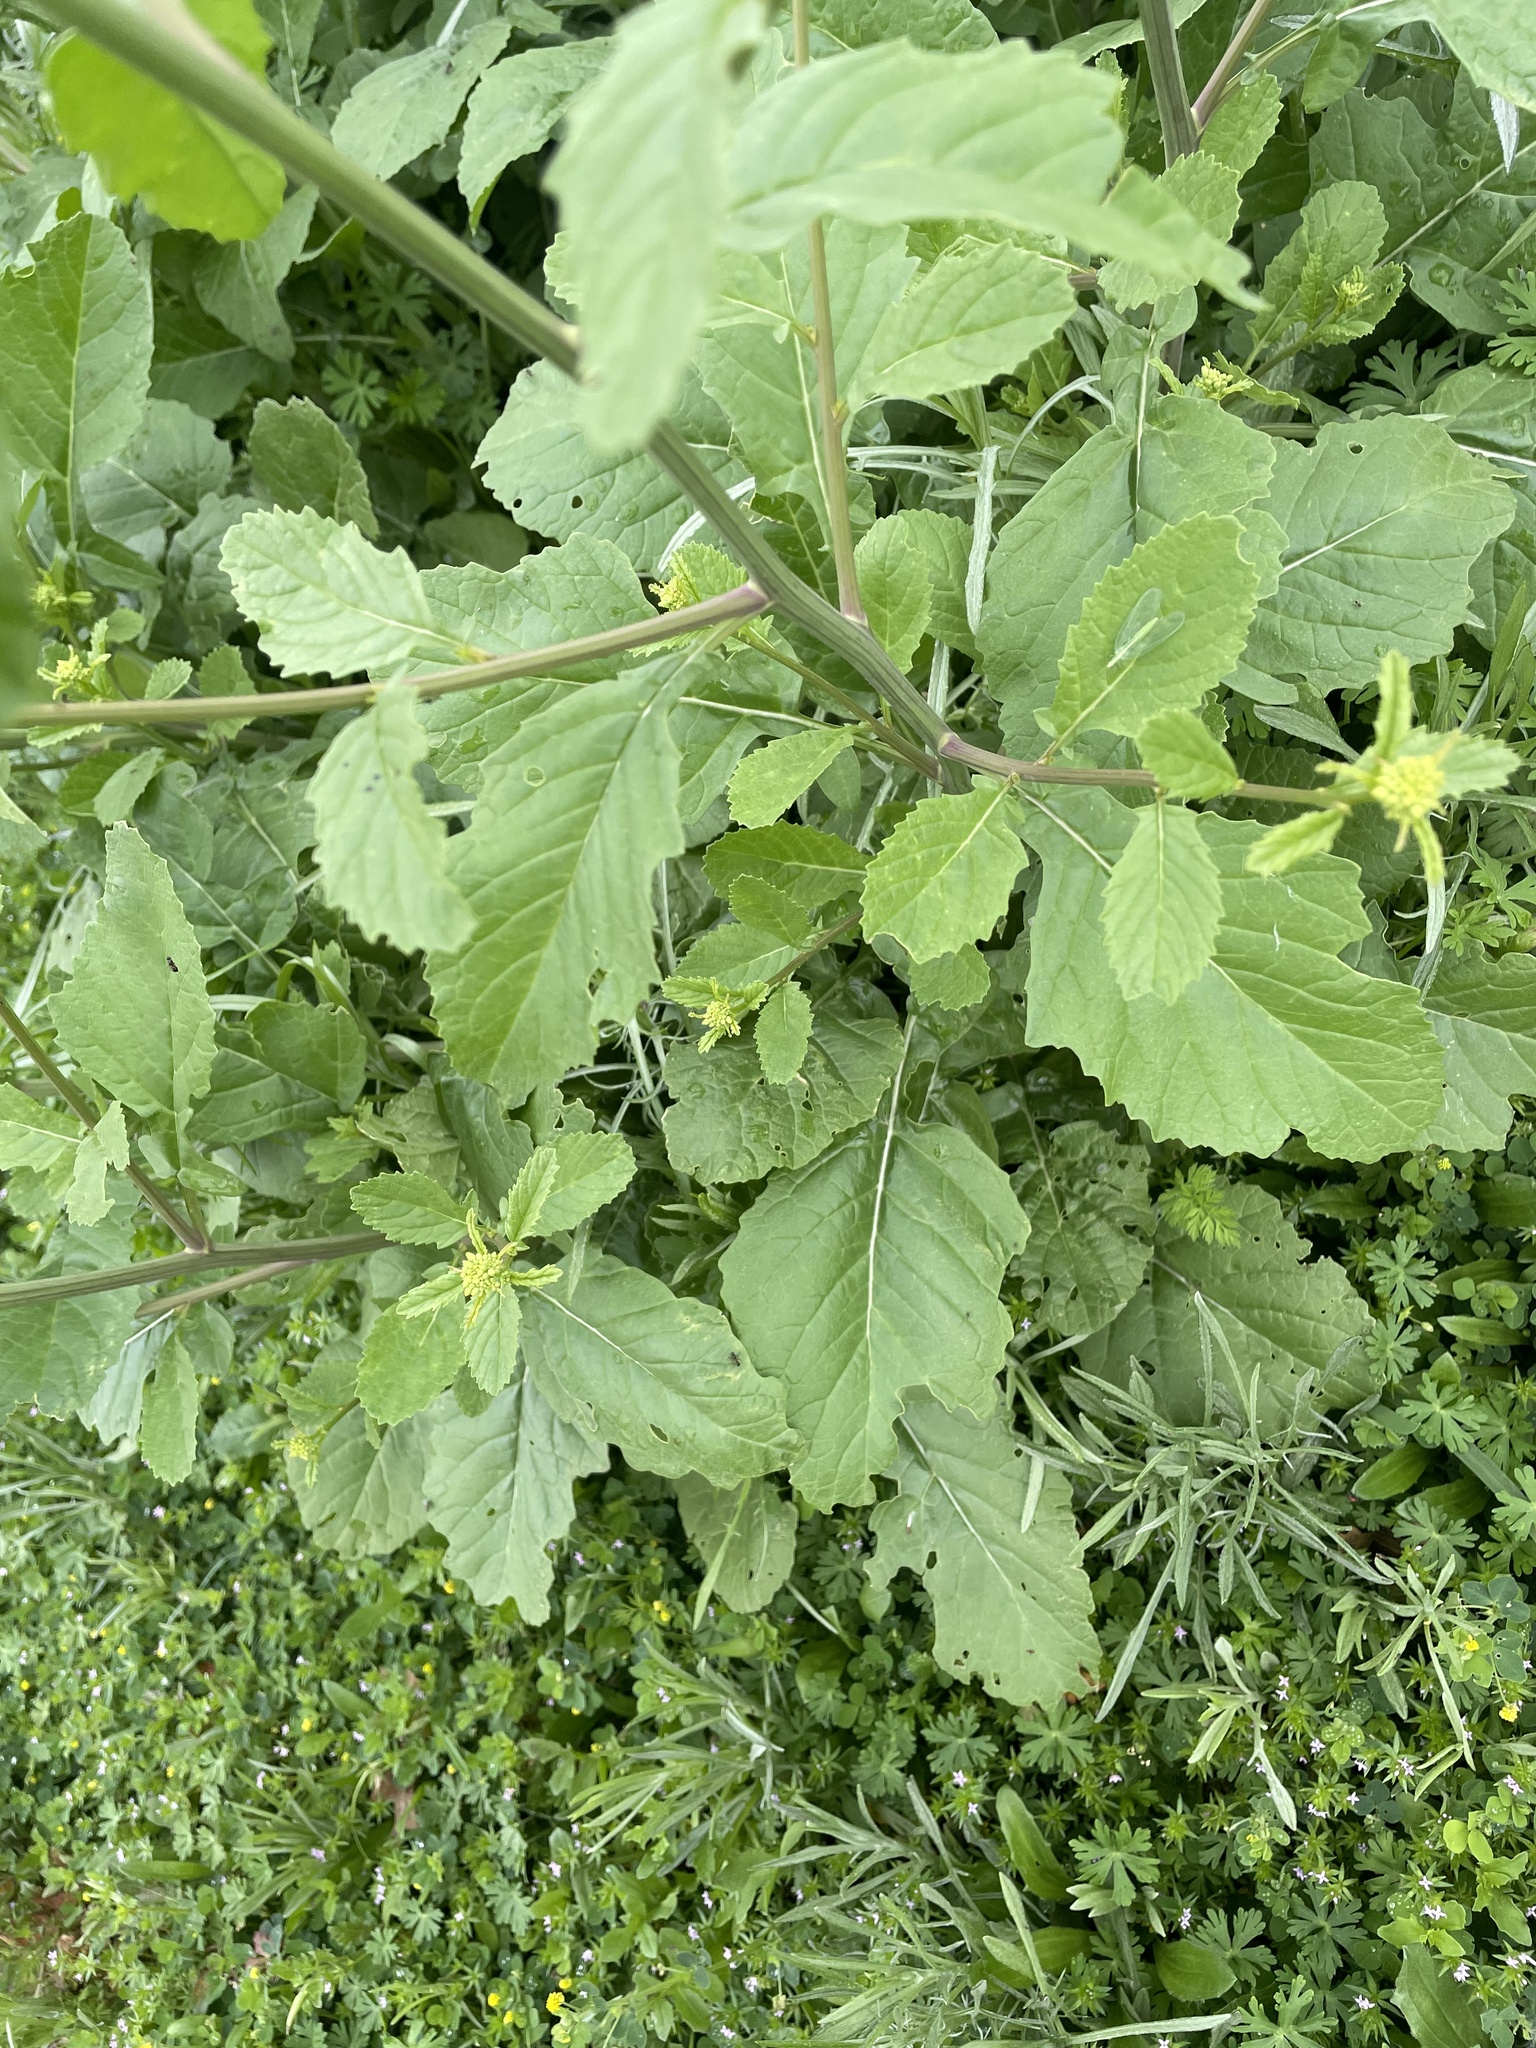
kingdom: Plantae
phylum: Tracheophyta
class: Magnoliopsida
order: Brassicales
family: Brassicaceae
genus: Rapistrum
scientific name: Rapistrum rugosum
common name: Annual bastardcabbage
